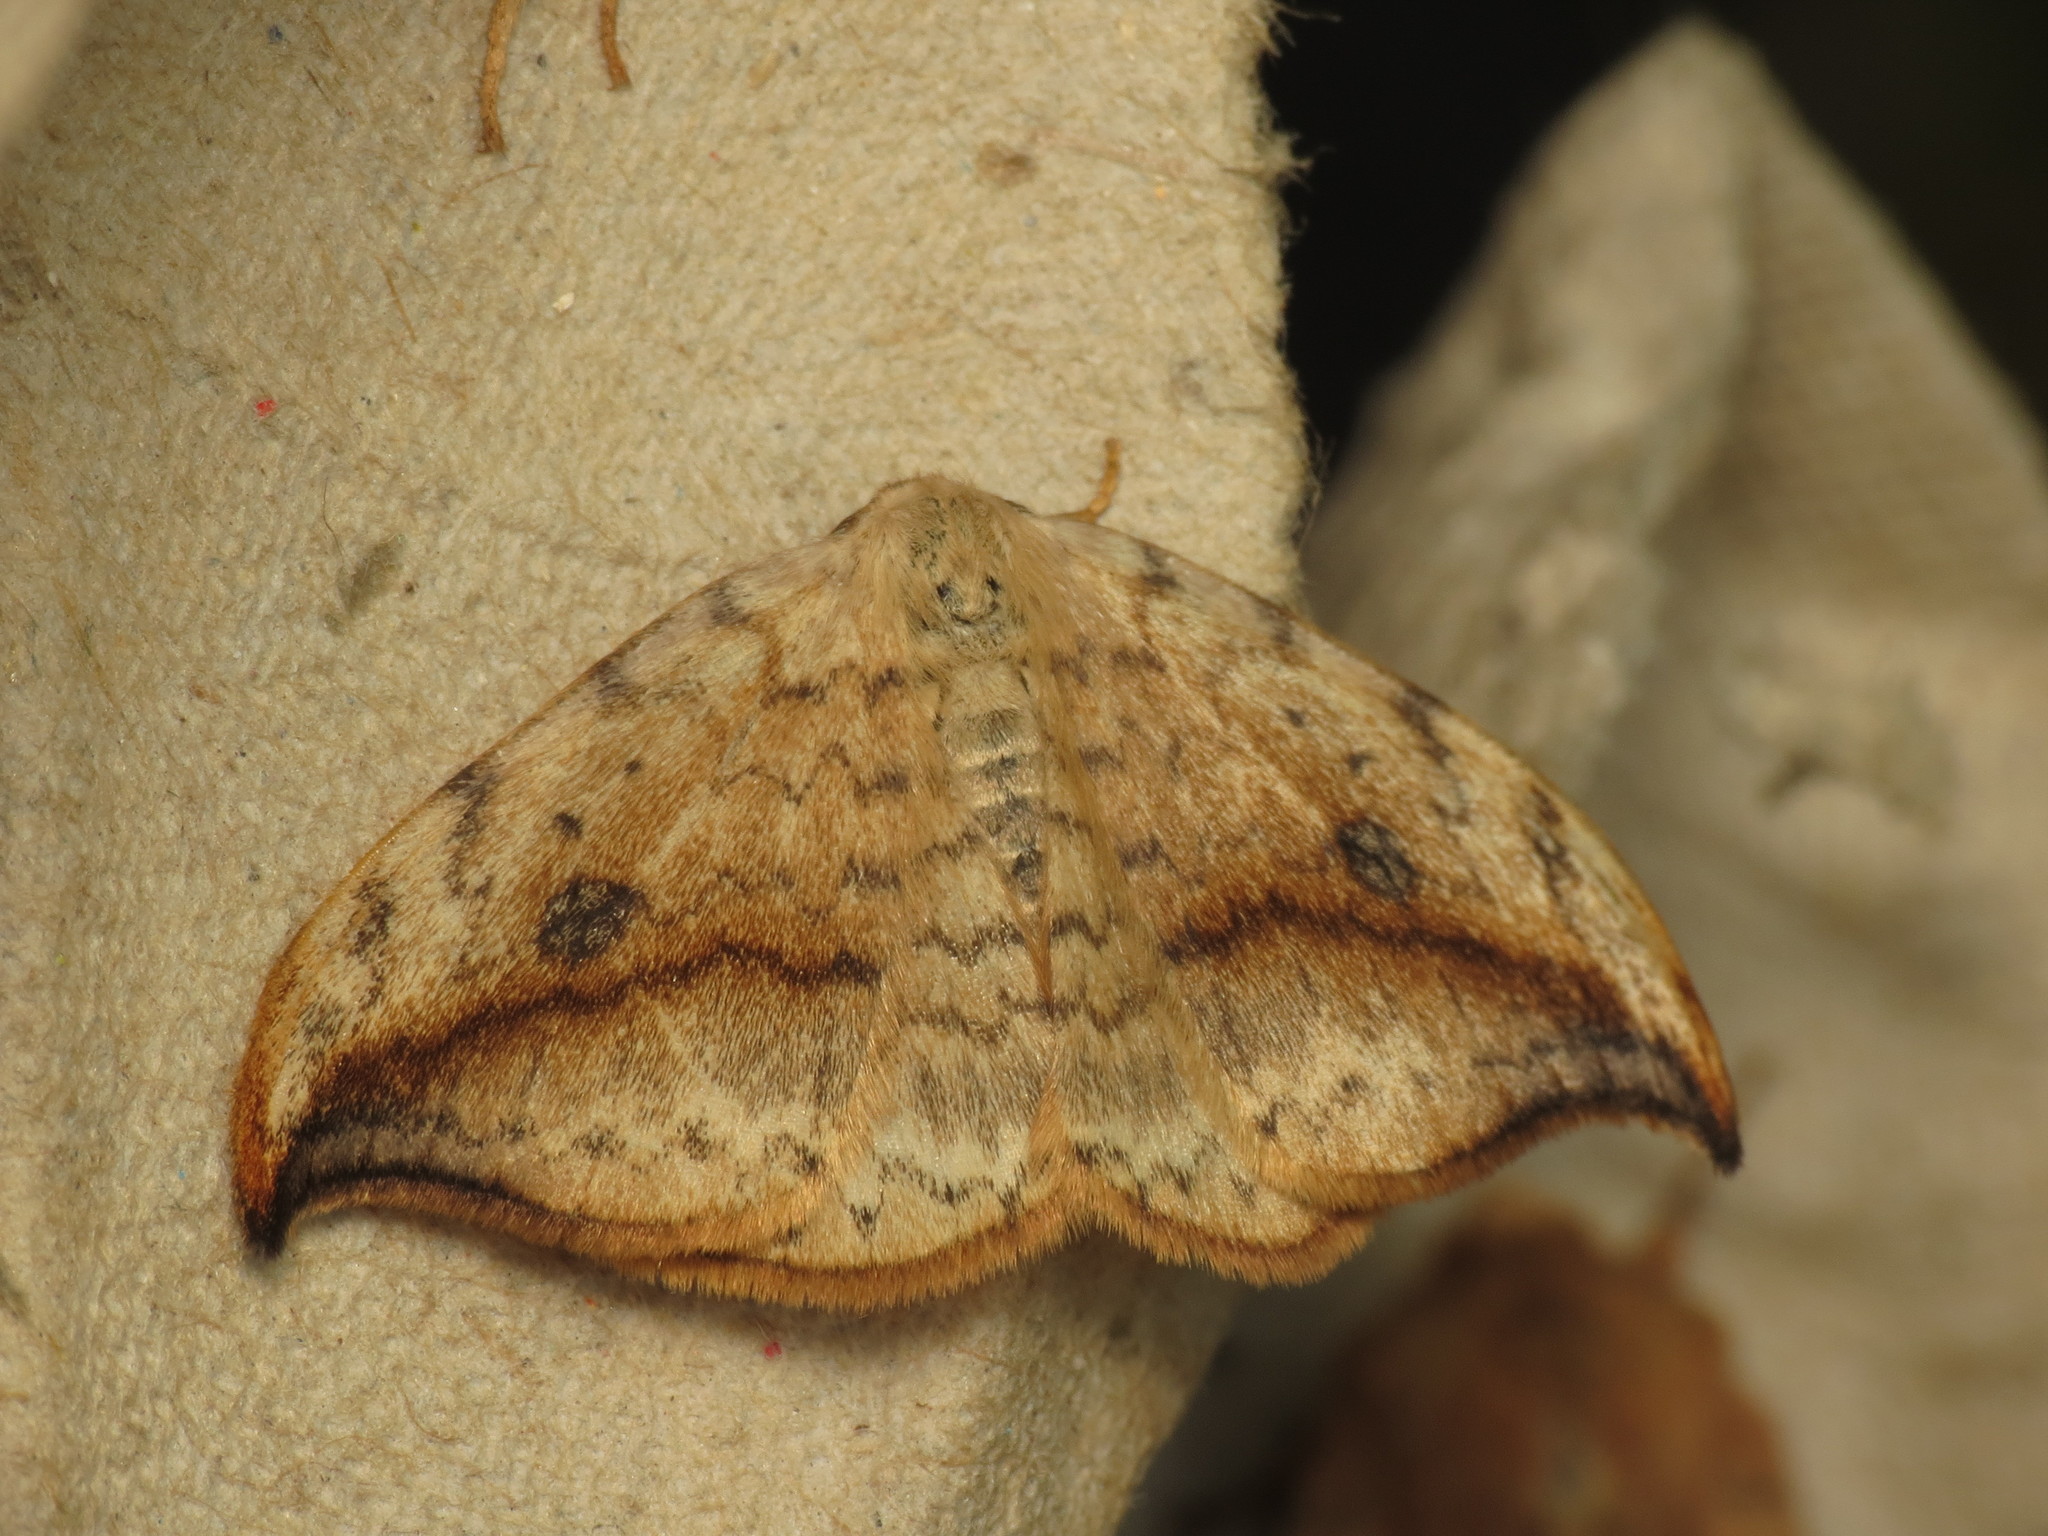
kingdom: Animalia
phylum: Arthropoda
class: Insecta
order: Lepidoptera
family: Drepanidae
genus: Drepana
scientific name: Drepana falcataria
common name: Pebble hook-tip
